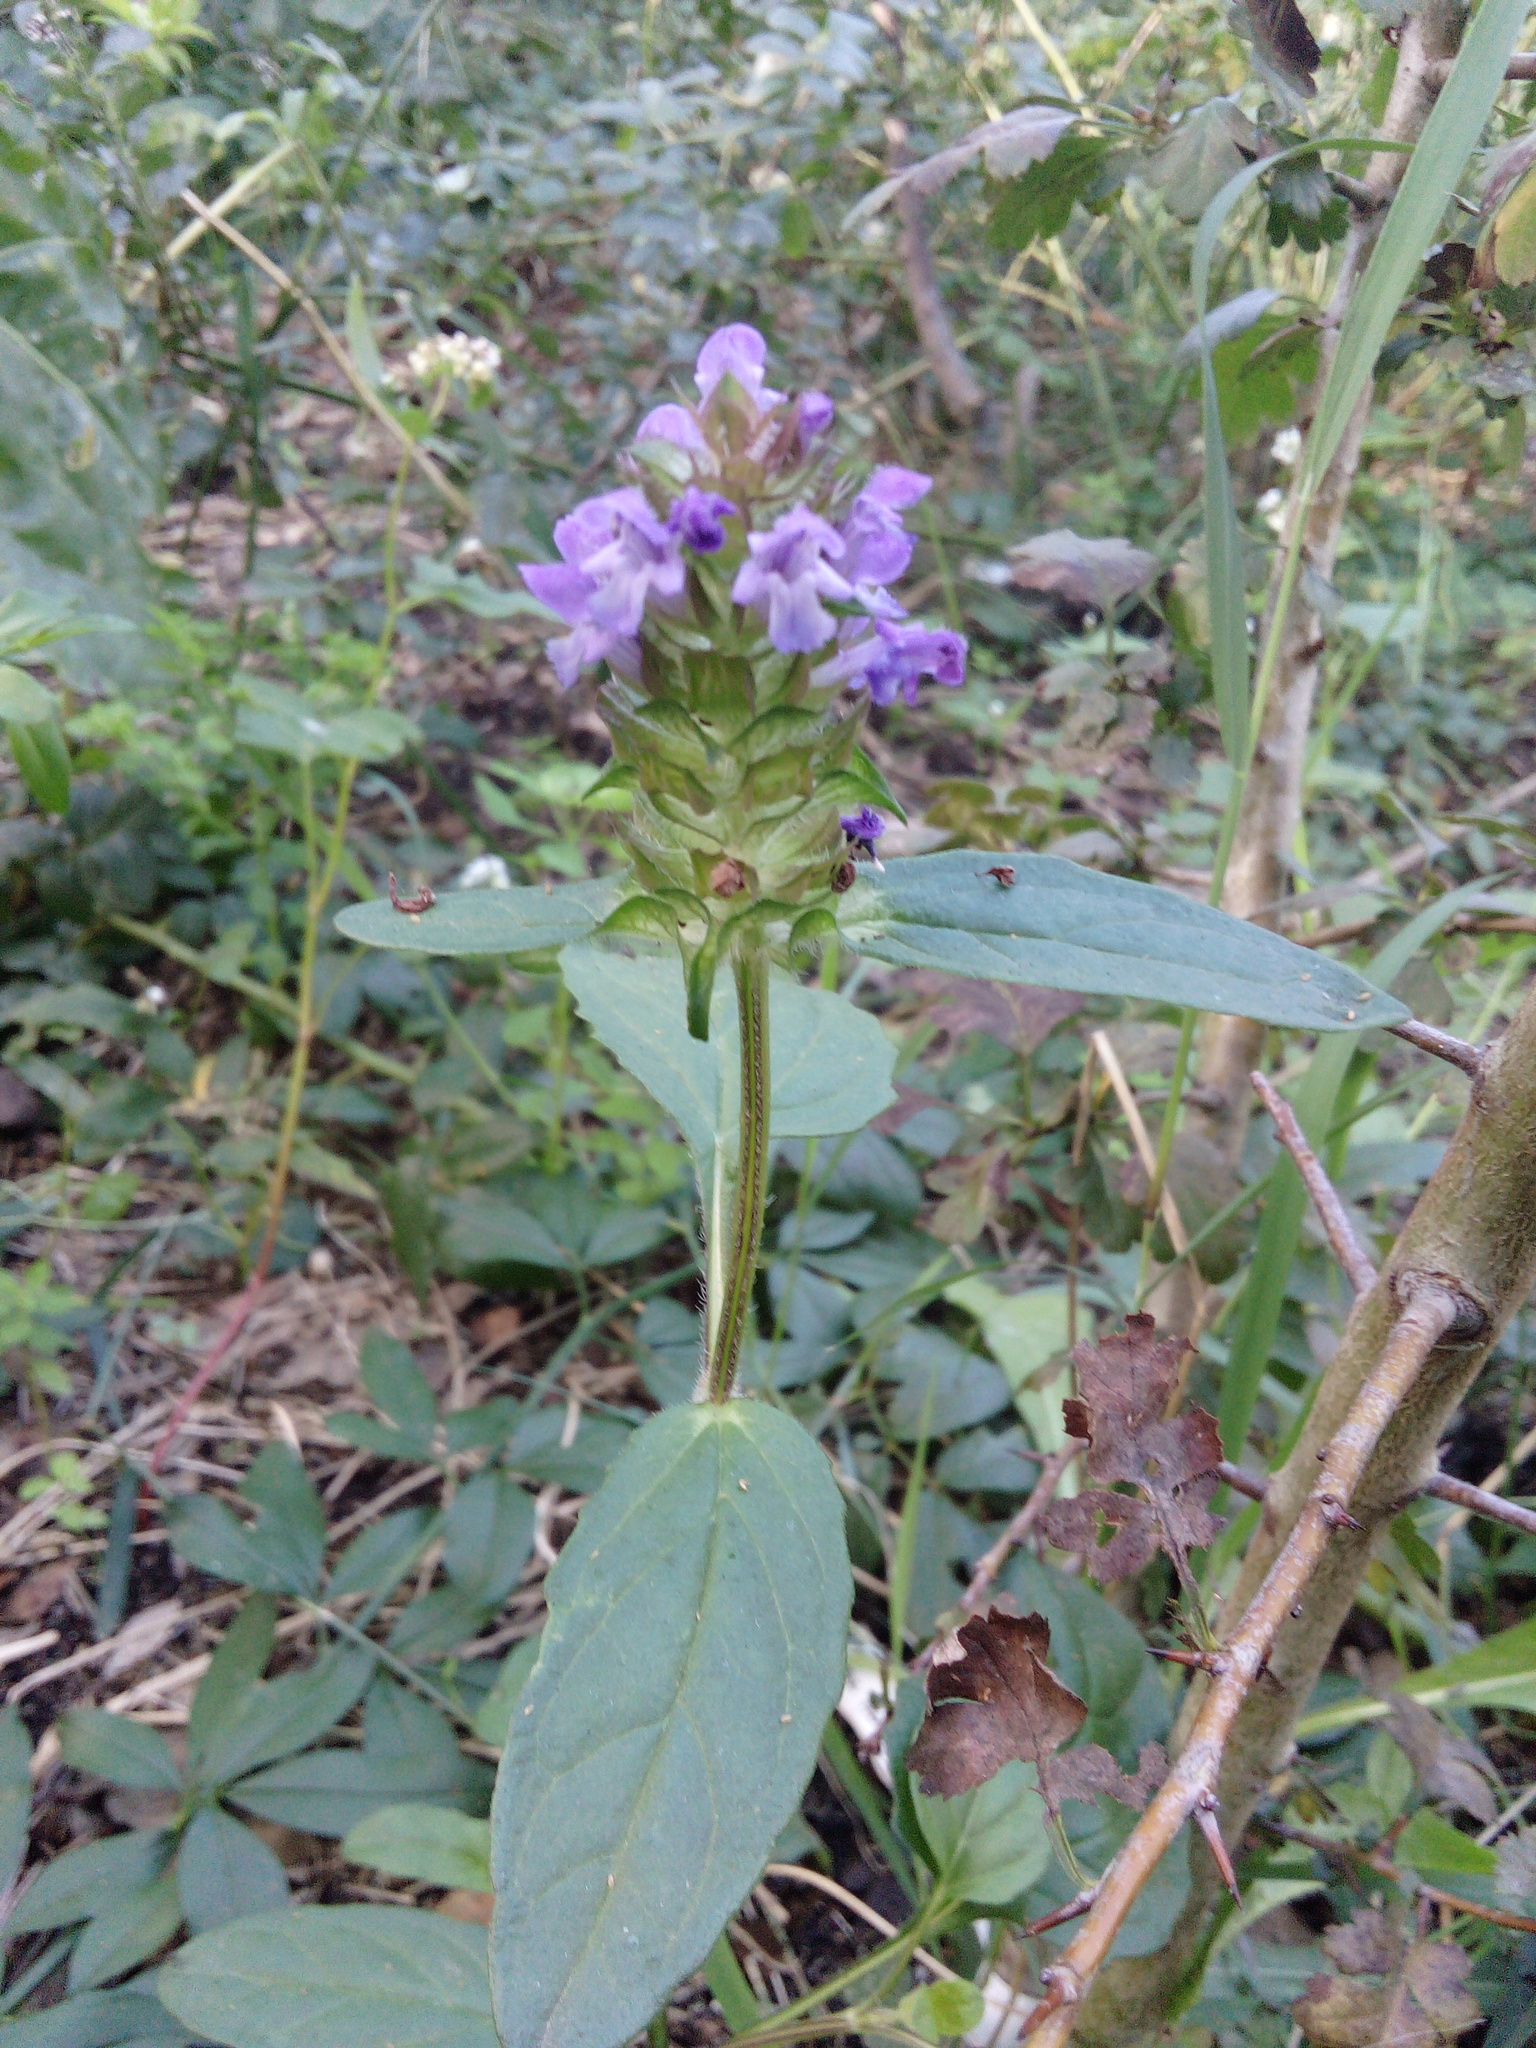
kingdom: Plantae
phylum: Tracheophyta
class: Magnoliopsida
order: Lamiales
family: Lamiaceae
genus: Prunella
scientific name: Prunella vulgaris
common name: Heal-all
